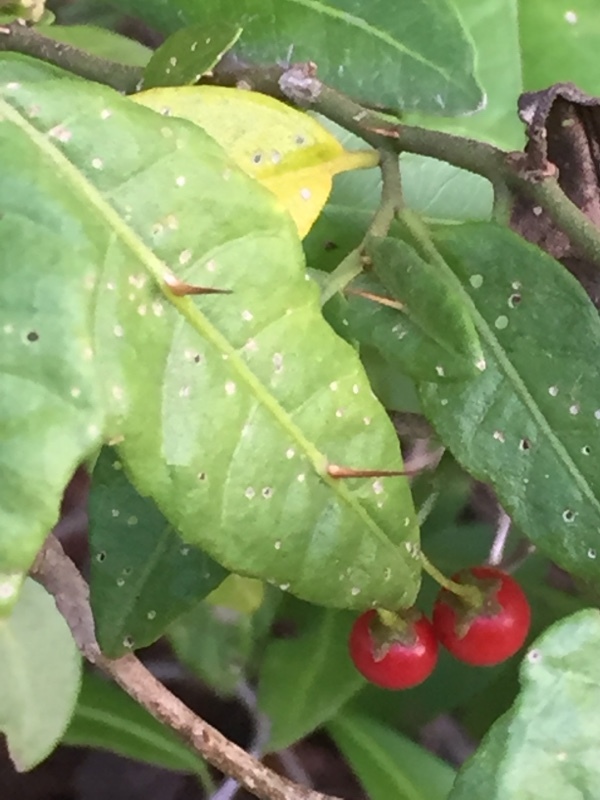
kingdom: Plantae
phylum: Tracheophyta
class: Magnoliopsida
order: Solanales
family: Solanaceae
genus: Solanum
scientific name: Solanum bahamense
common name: Canker-berry
